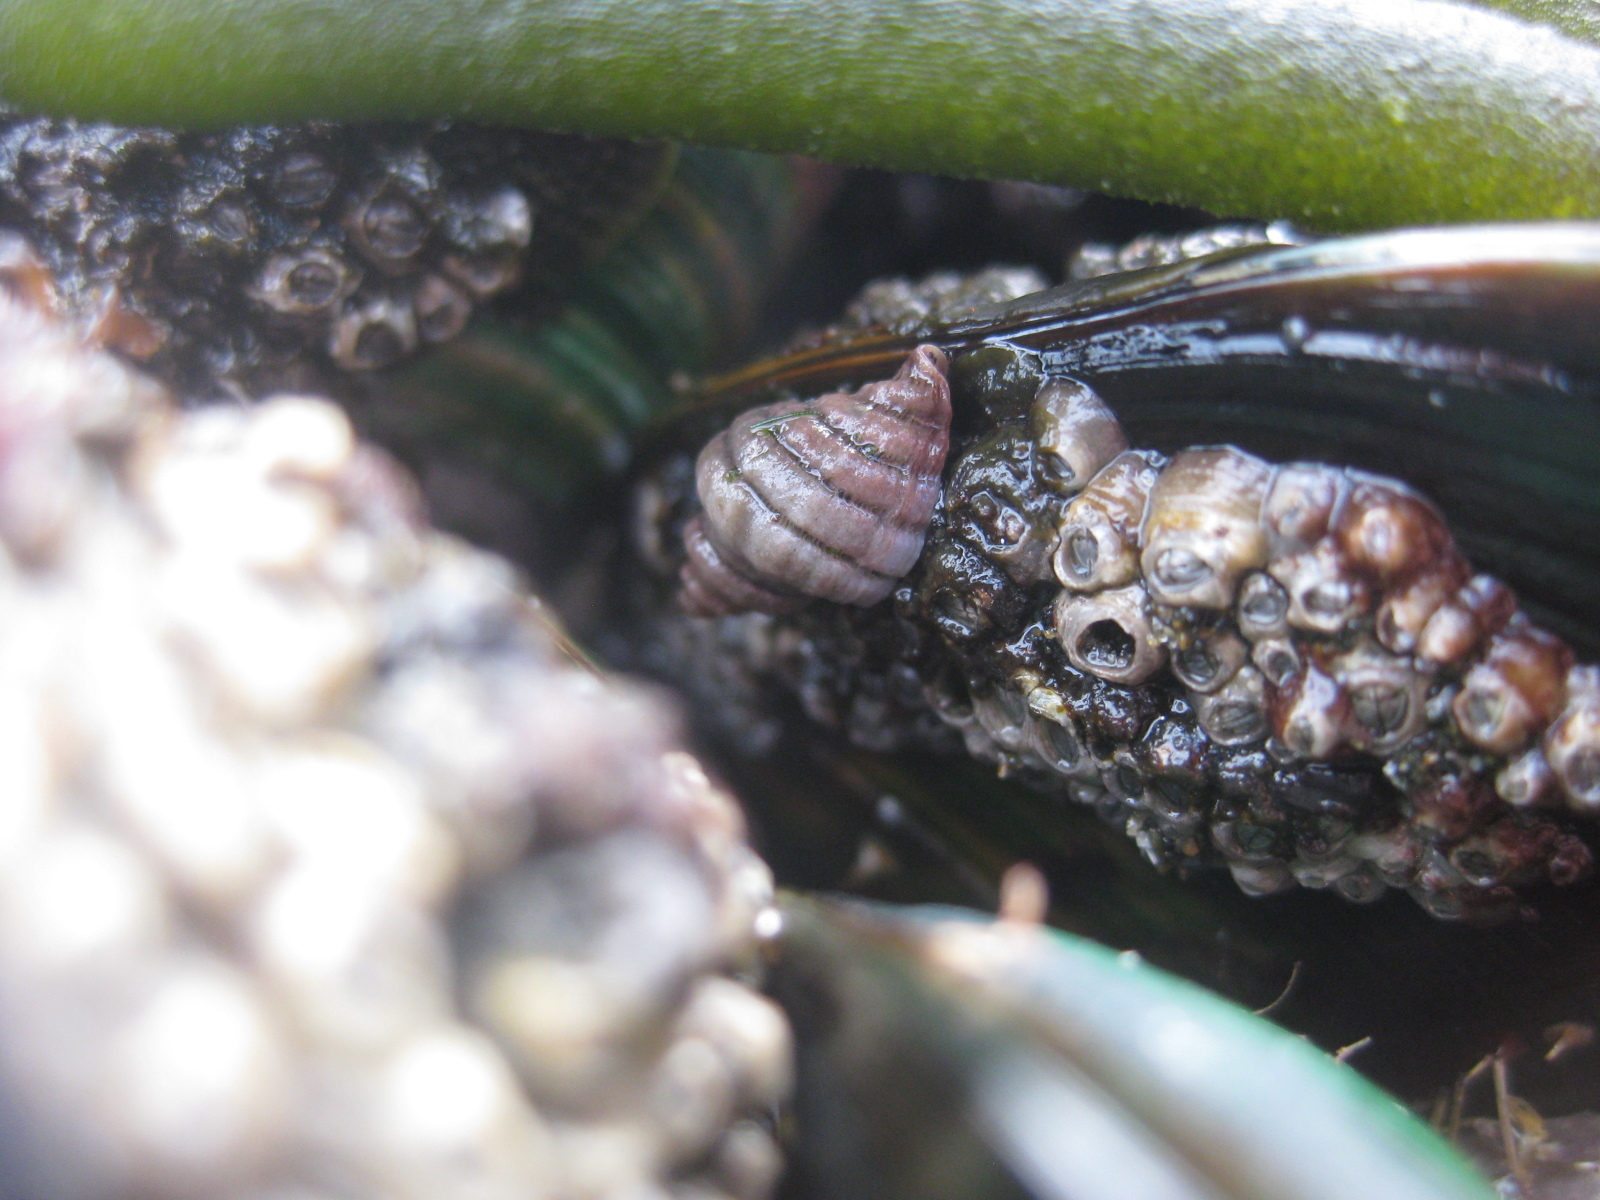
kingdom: Animalia
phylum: Mollusca
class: Gastropoda
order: Neogastropoda
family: Muricidae
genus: Paratrophon
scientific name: Paratrophon cheesemani
